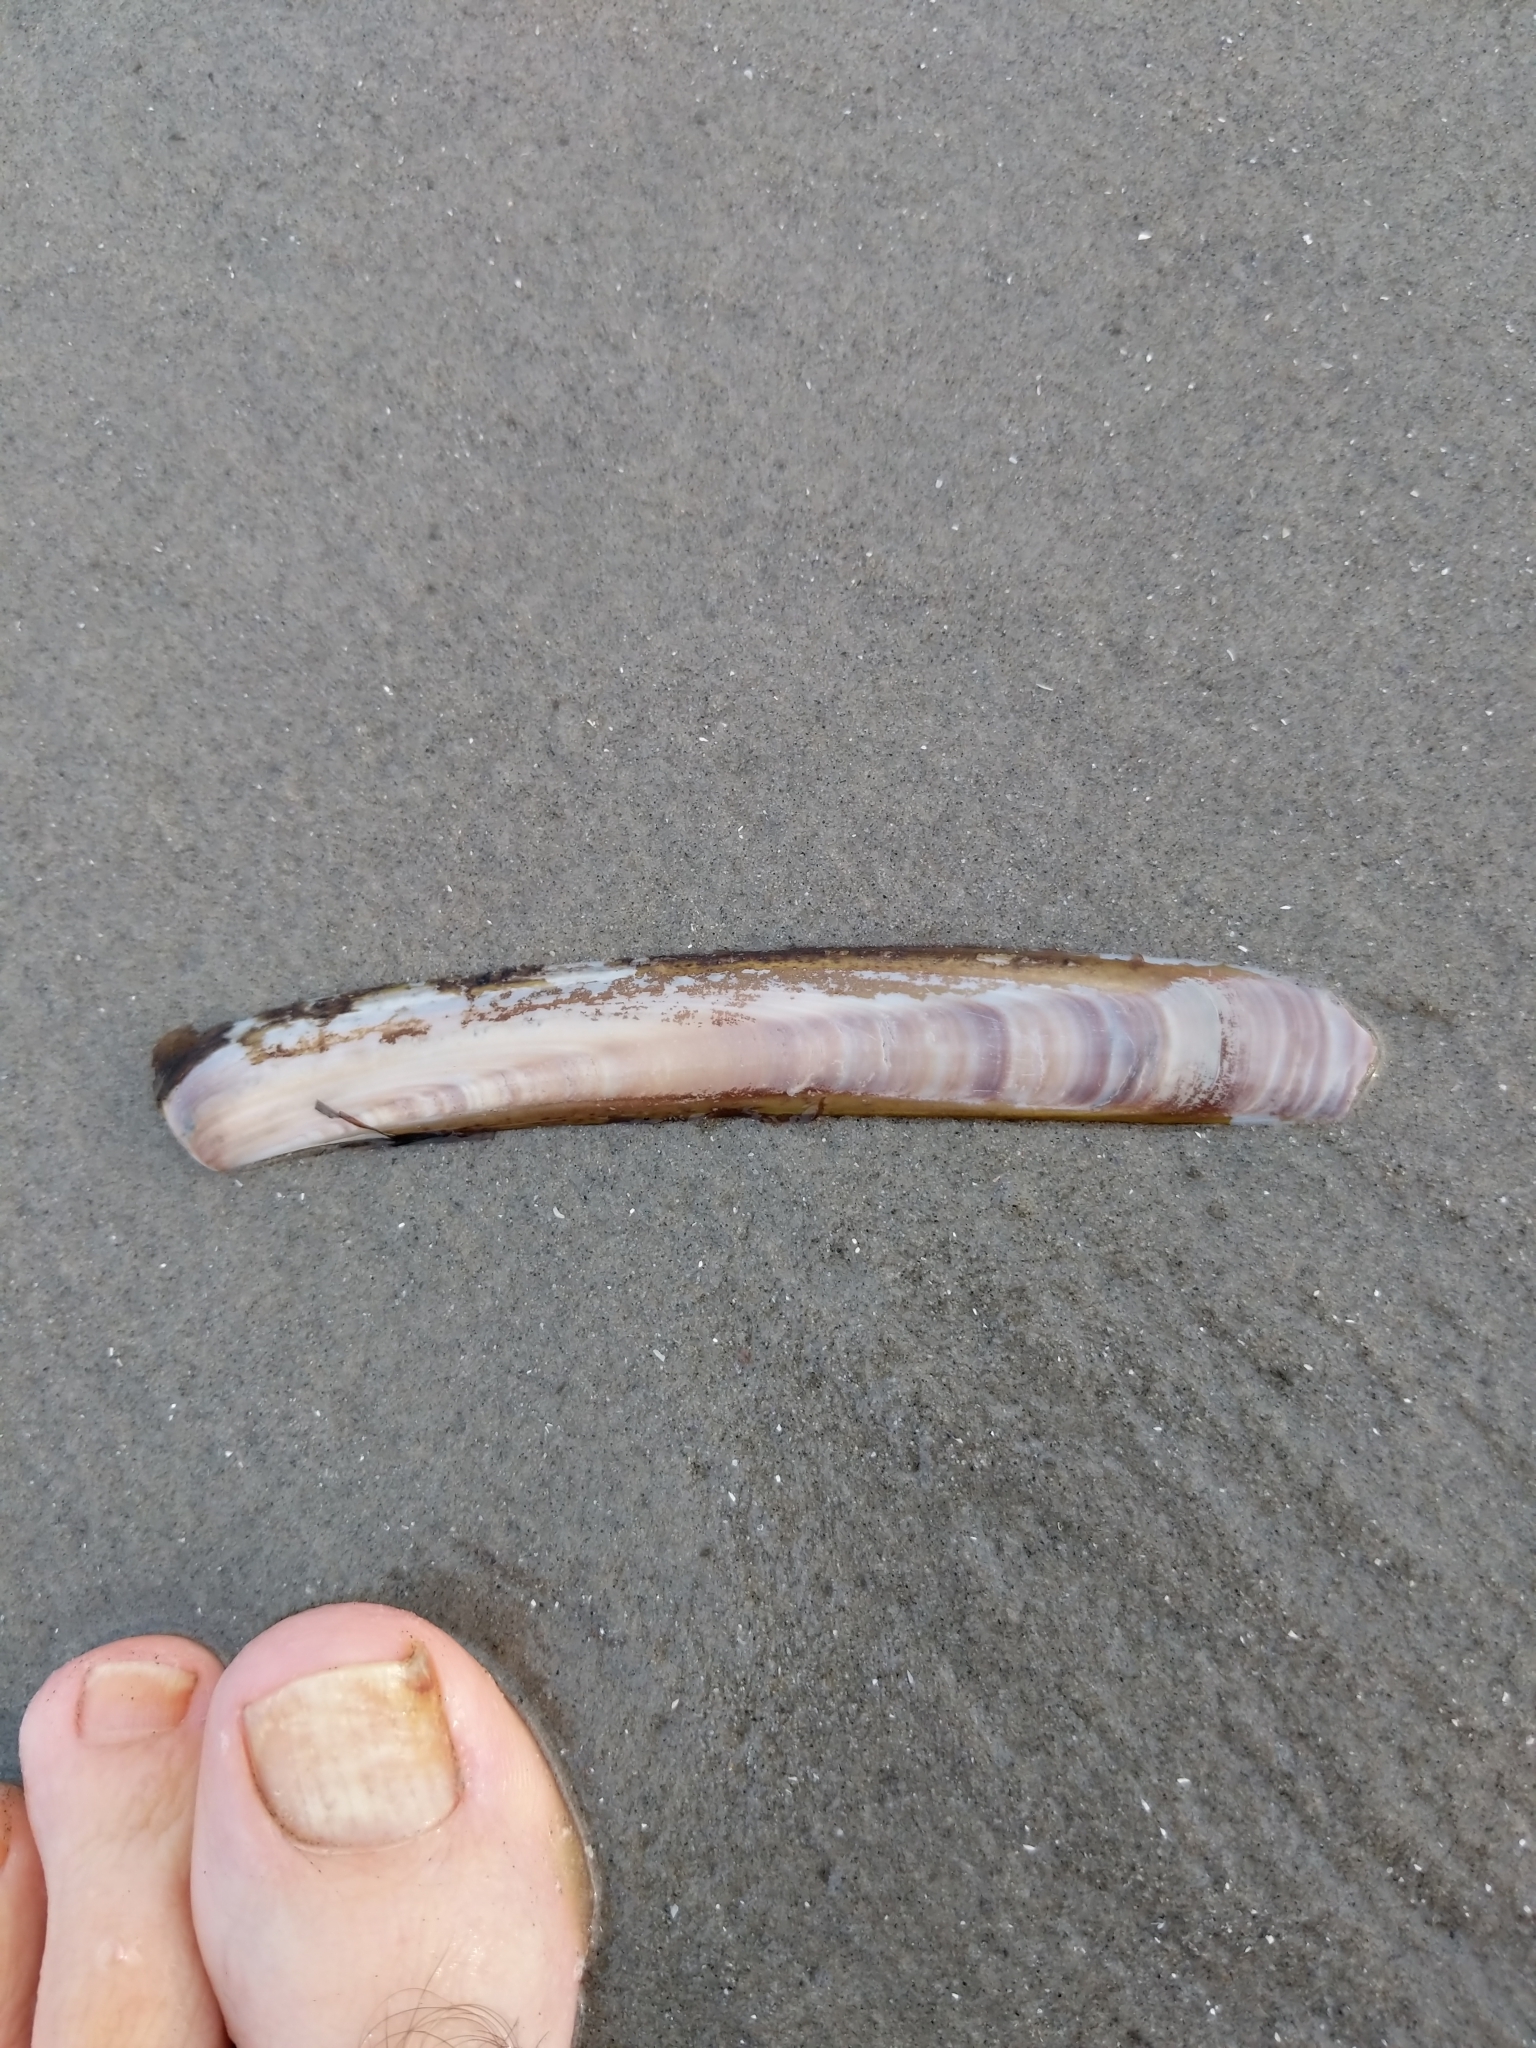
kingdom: Animalia
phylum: Mollusca
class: Bivalvia
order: Adapedonta
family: Pharidae
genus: Ensis
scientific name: Ensis leei
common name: American jack knife clam
